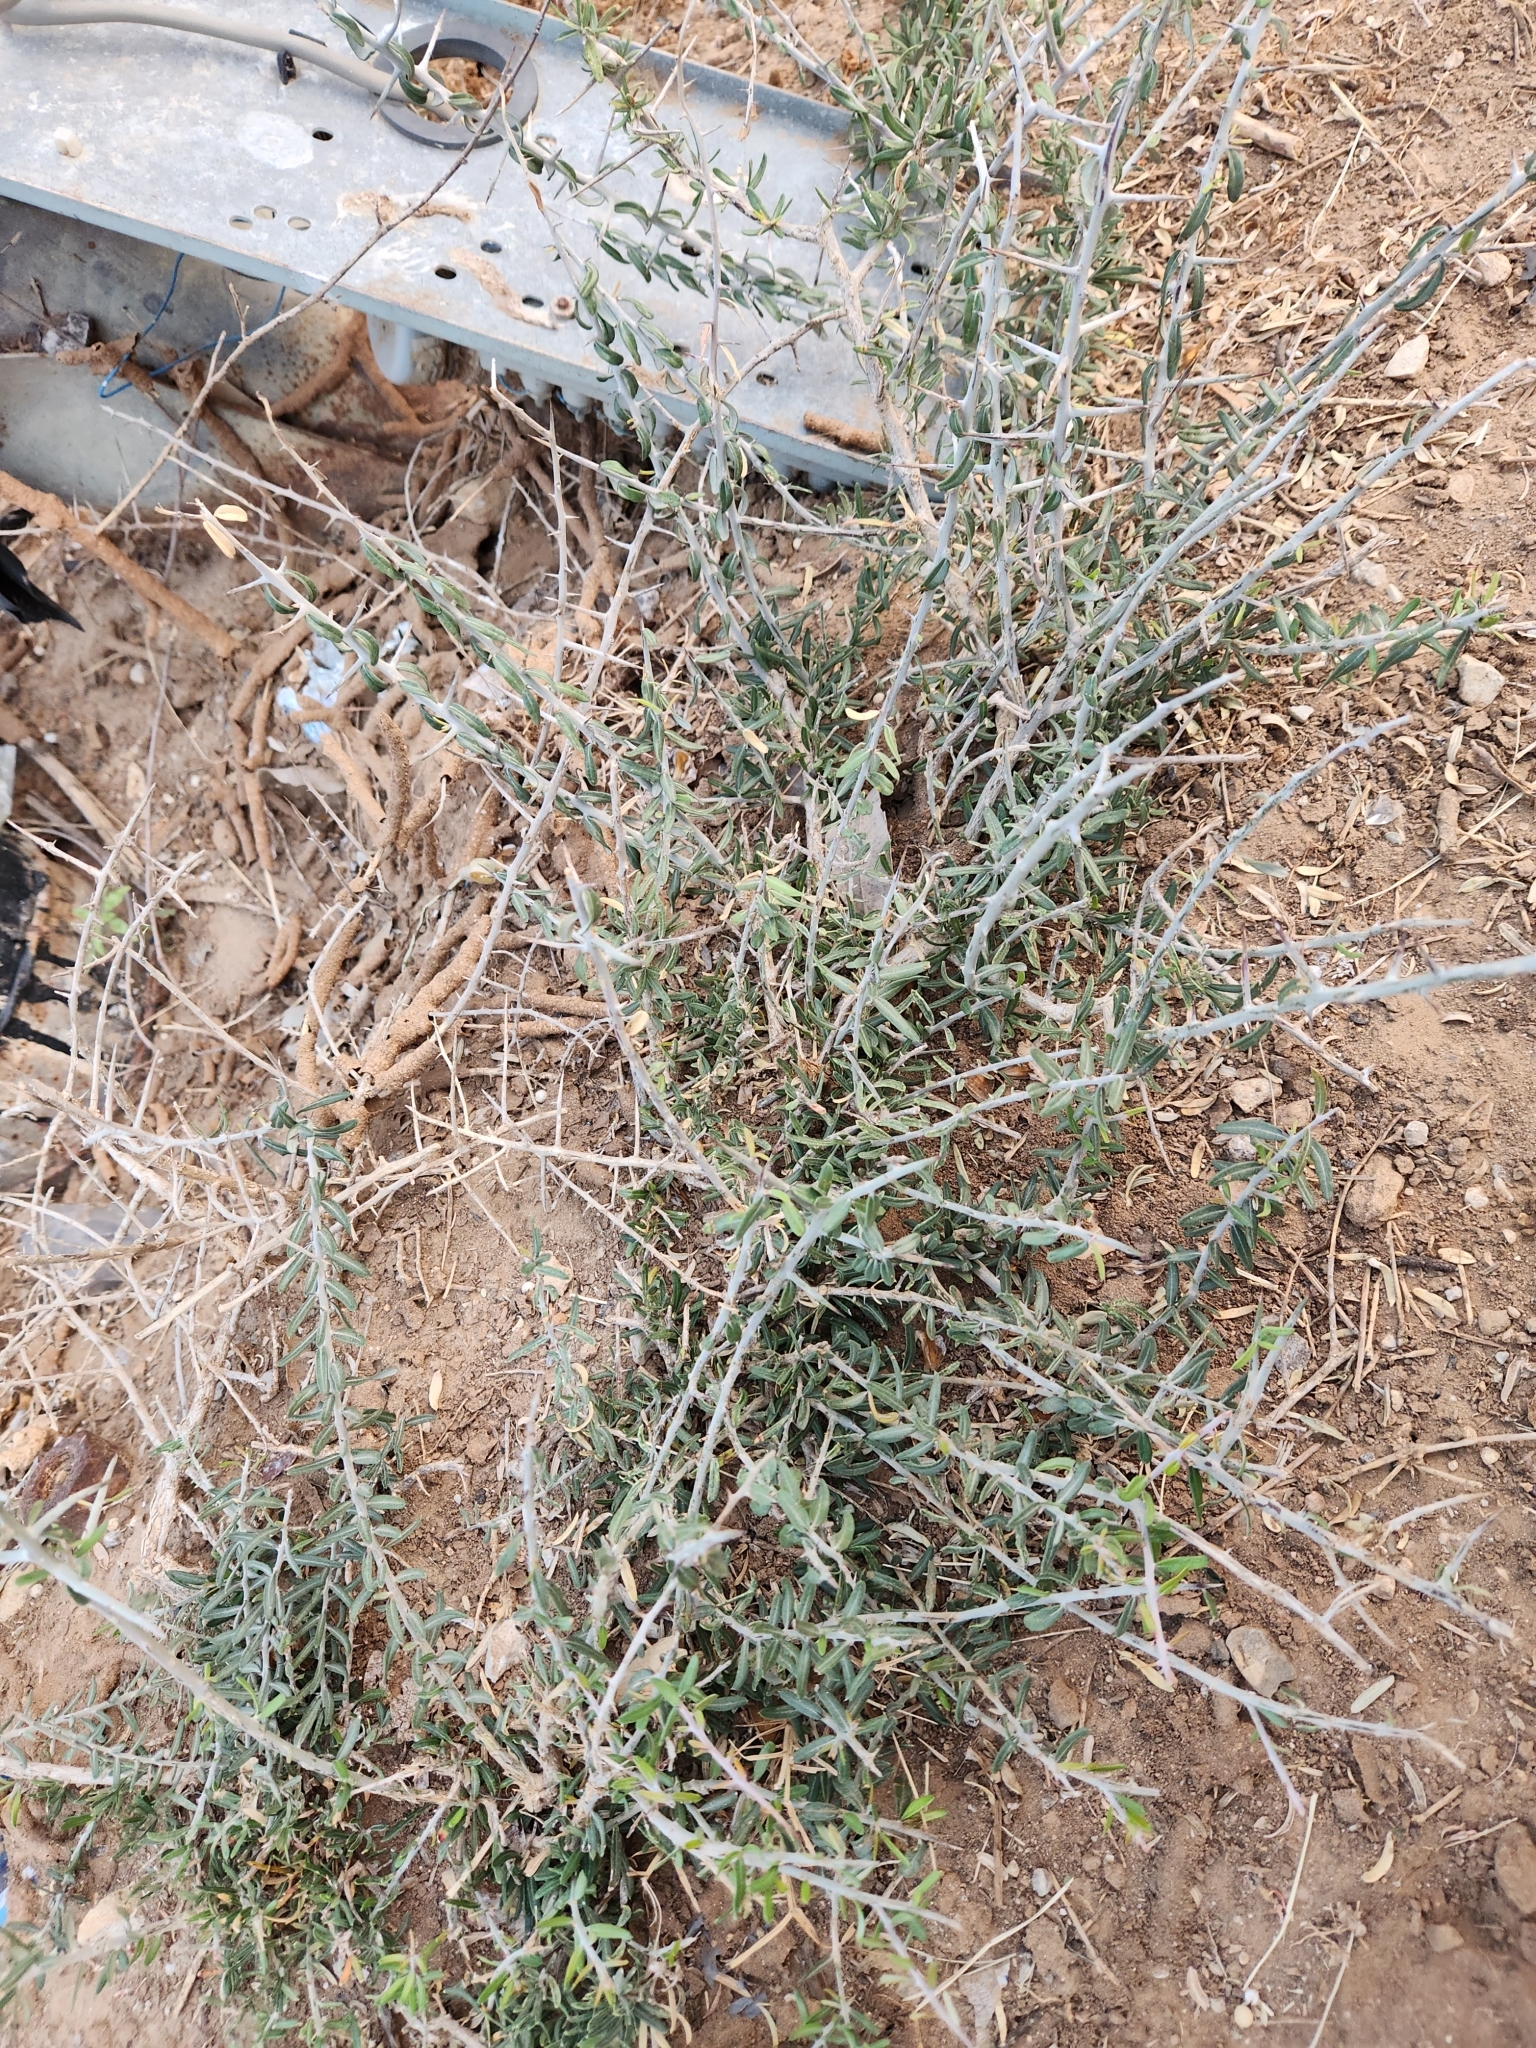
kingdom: Plantae
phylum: Tracheophyta
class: Magnoliopsida
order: Sapindales
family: Simaroubaceae
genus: Castela
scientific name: Castela erecta
